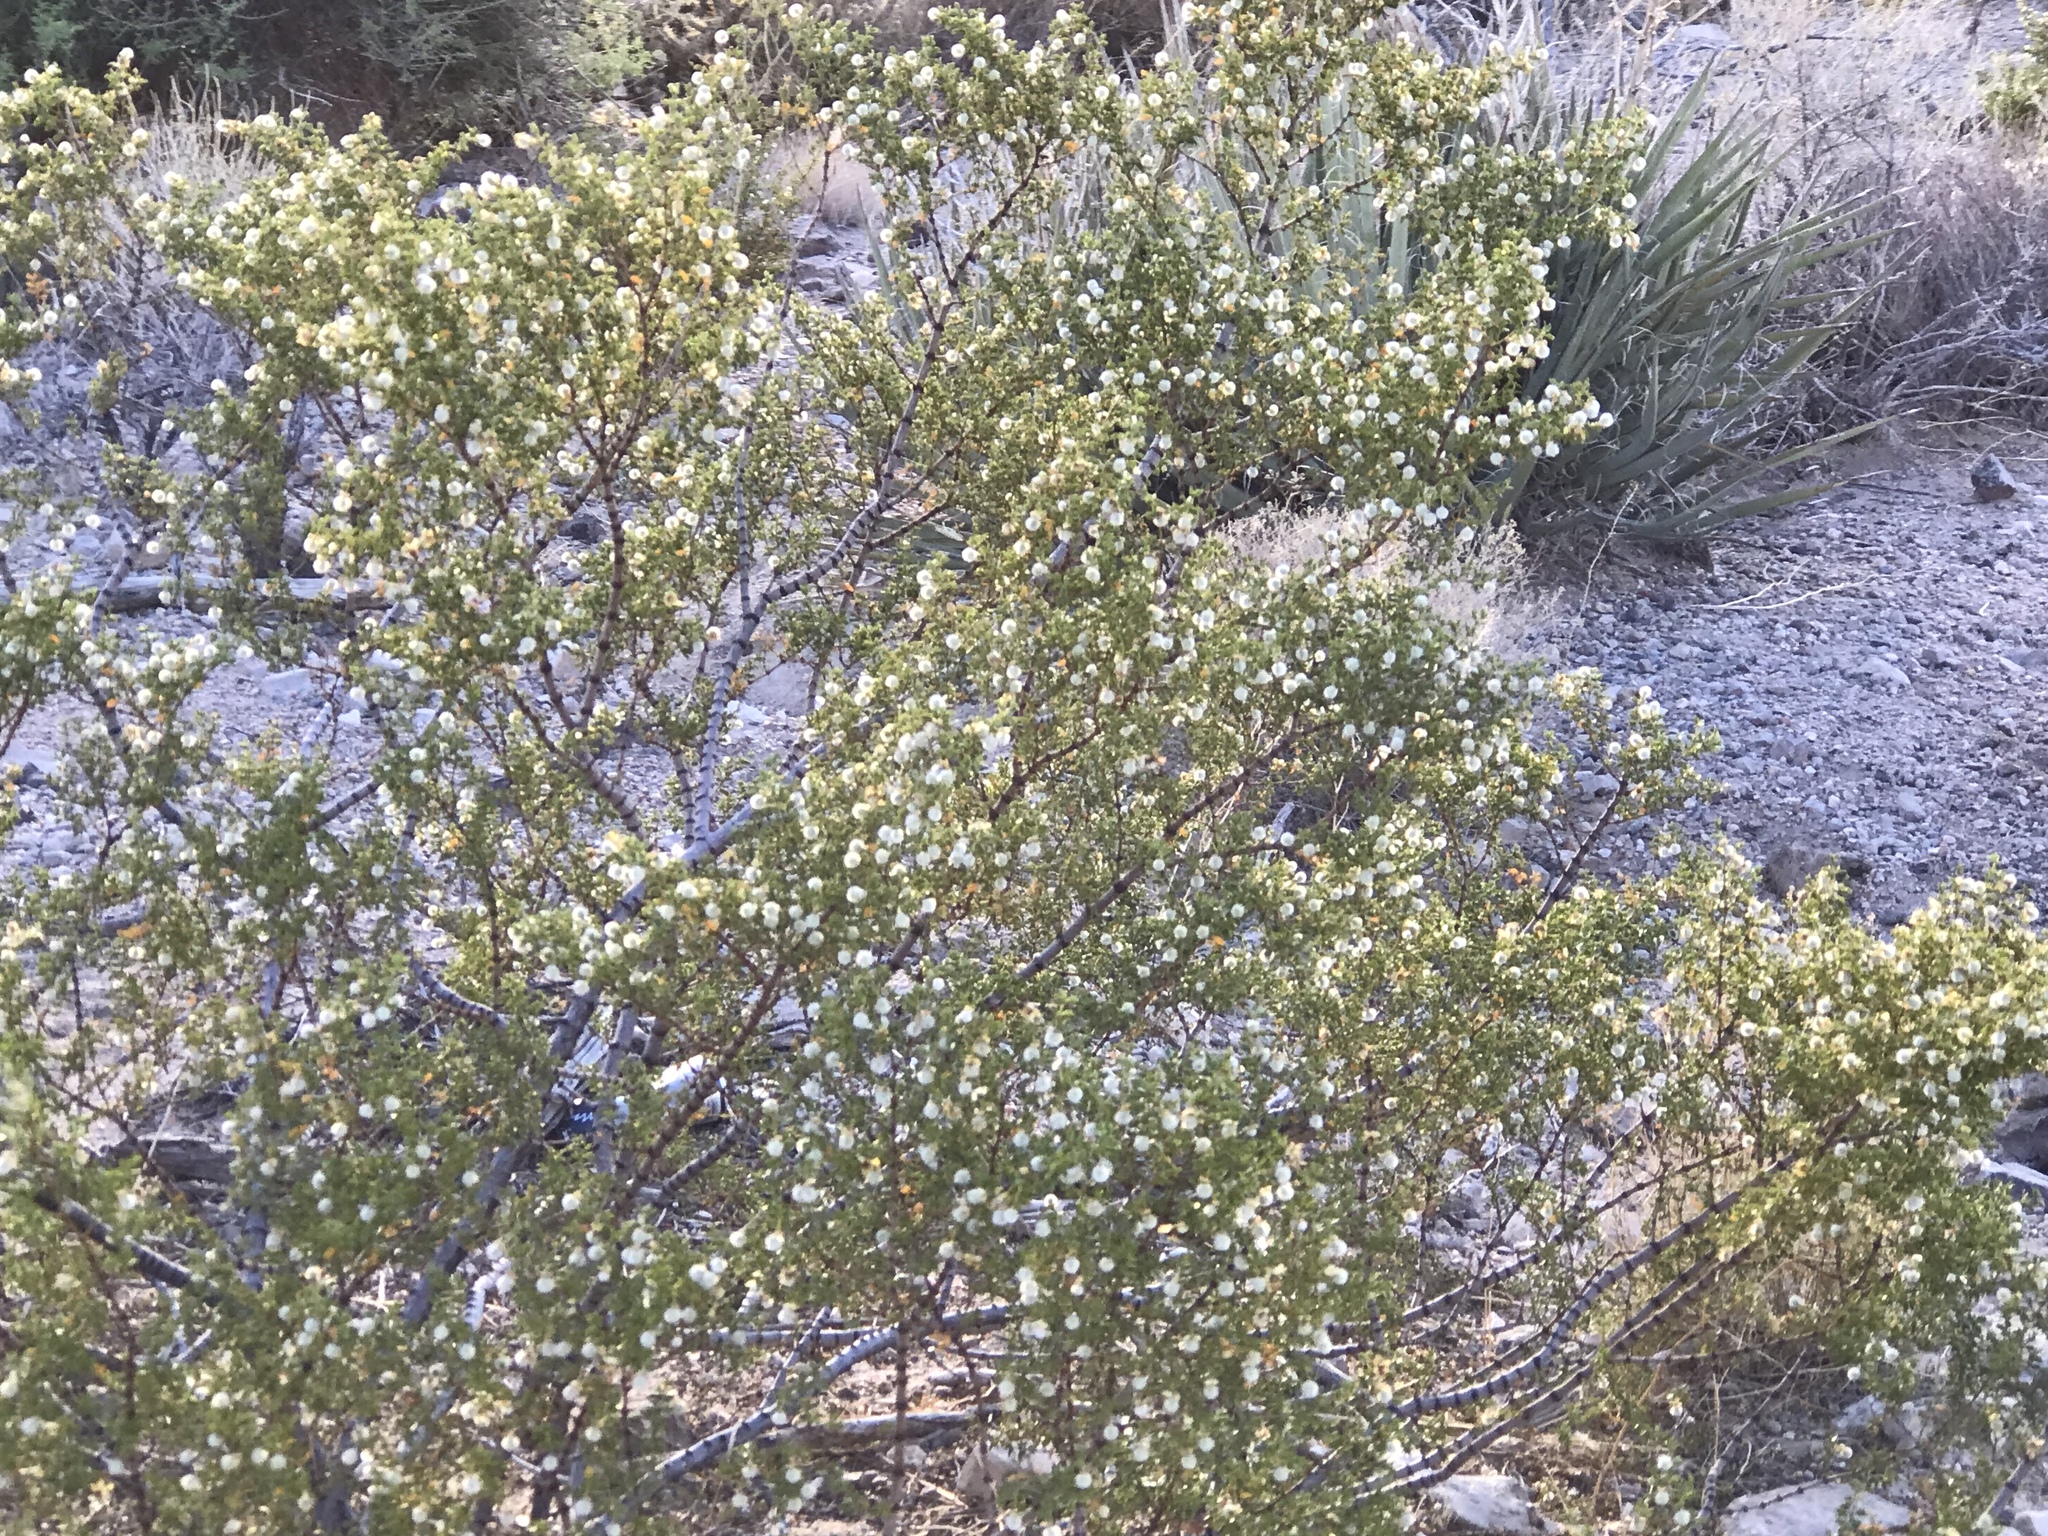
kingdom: Plantae
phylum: Tracheophyta
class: Magnoliopsida
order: Zygophyllales
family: Zygophyllaceae
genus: Larrea
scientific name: Larrea tridentata
